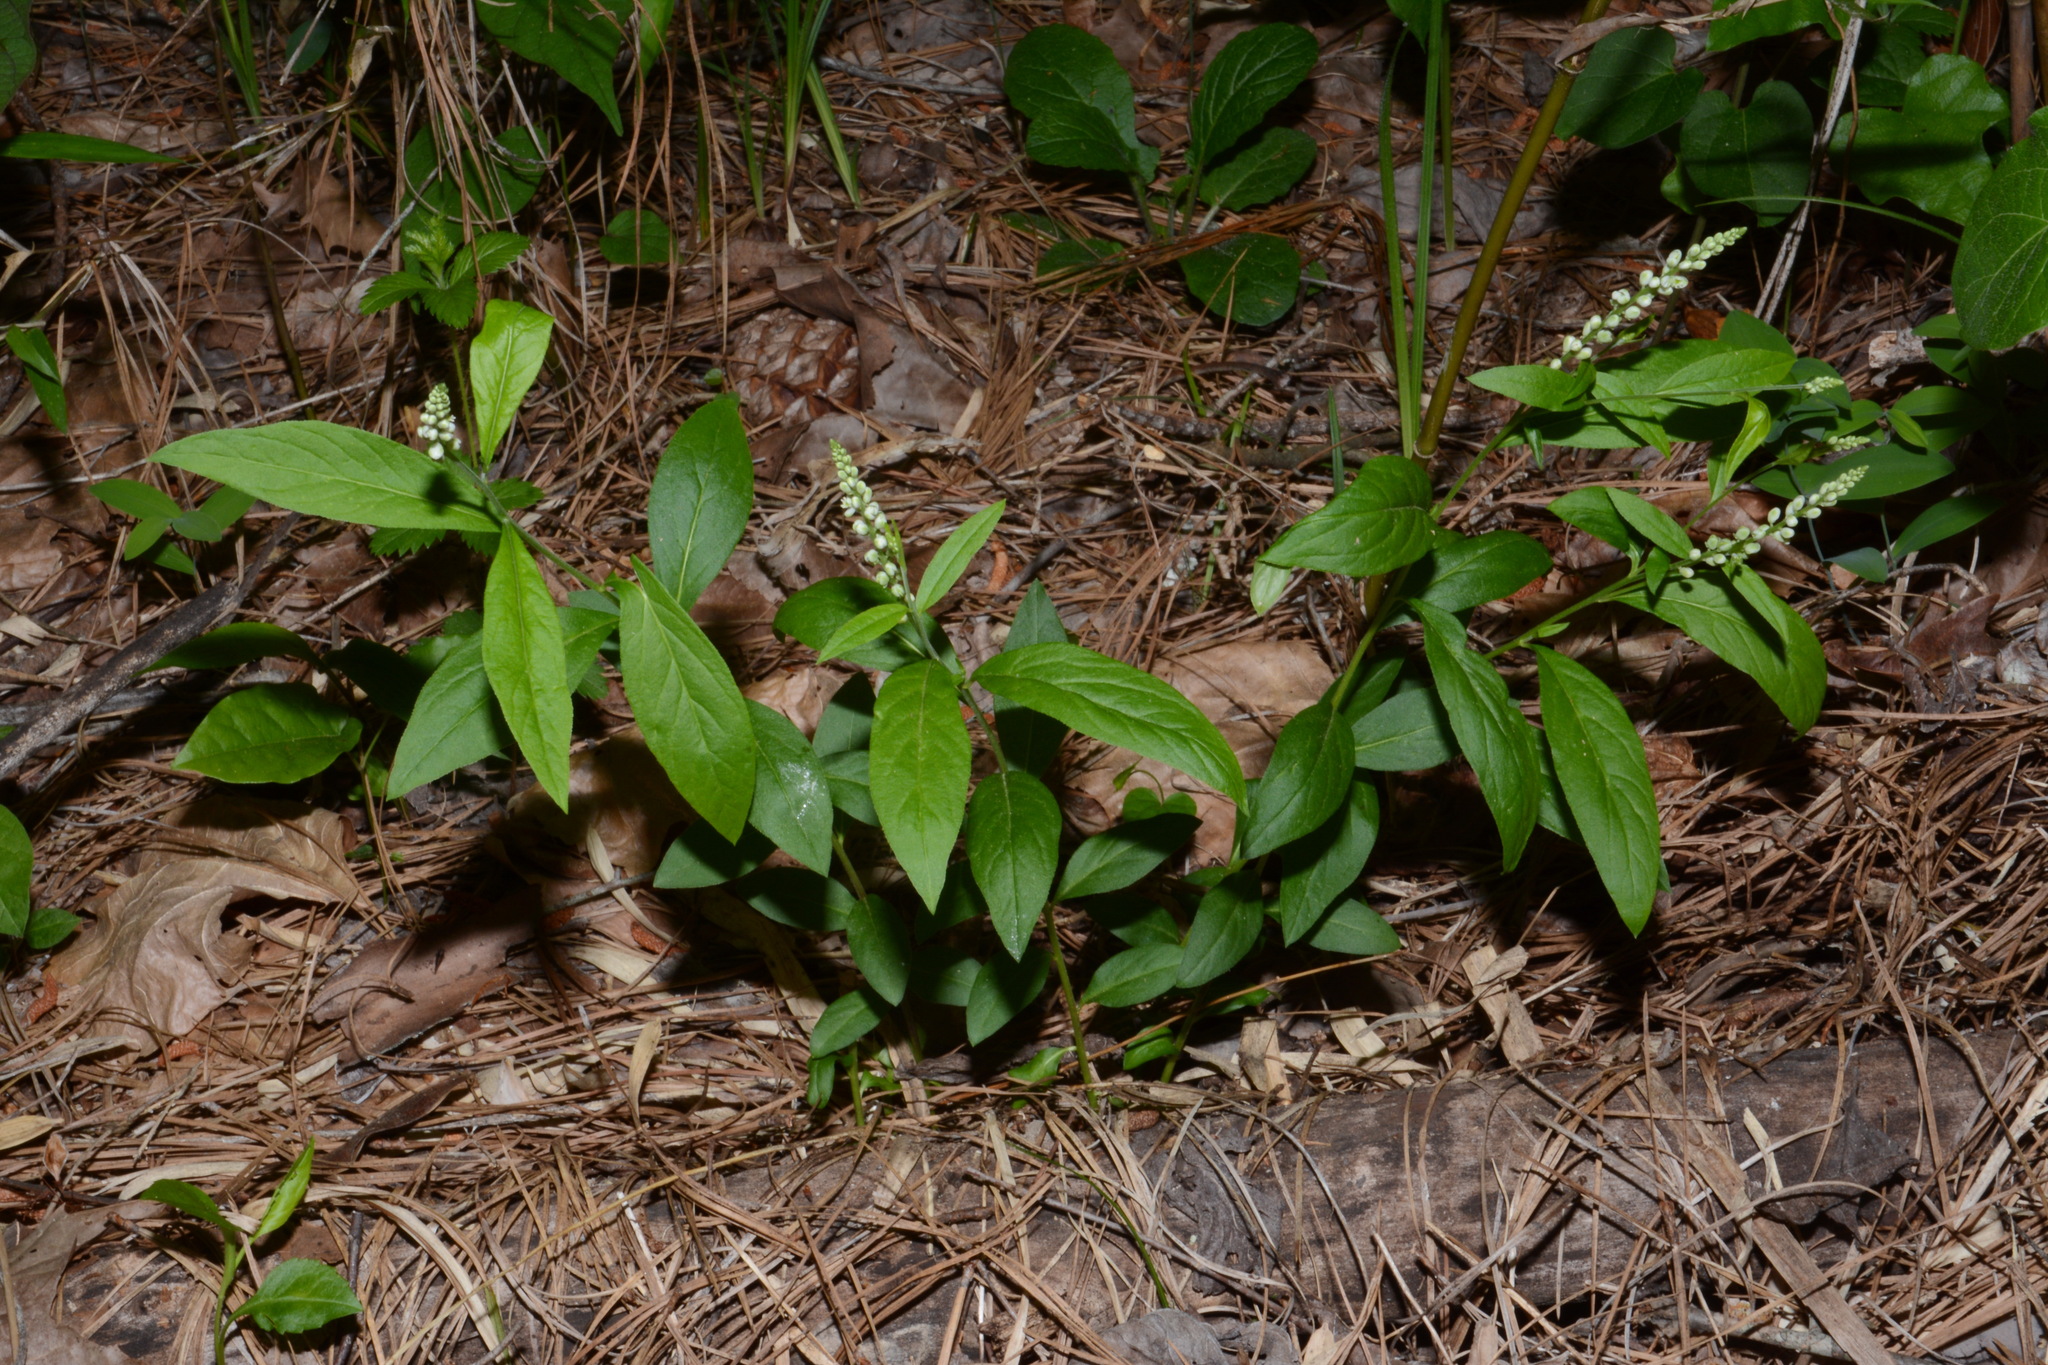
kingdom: Plantae
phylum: Tracheophyta
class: Magnoliopsida
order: Fabales
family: Polygalaceae
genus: Polygala
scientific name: Polygala senega
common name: Seneca snakeroot
